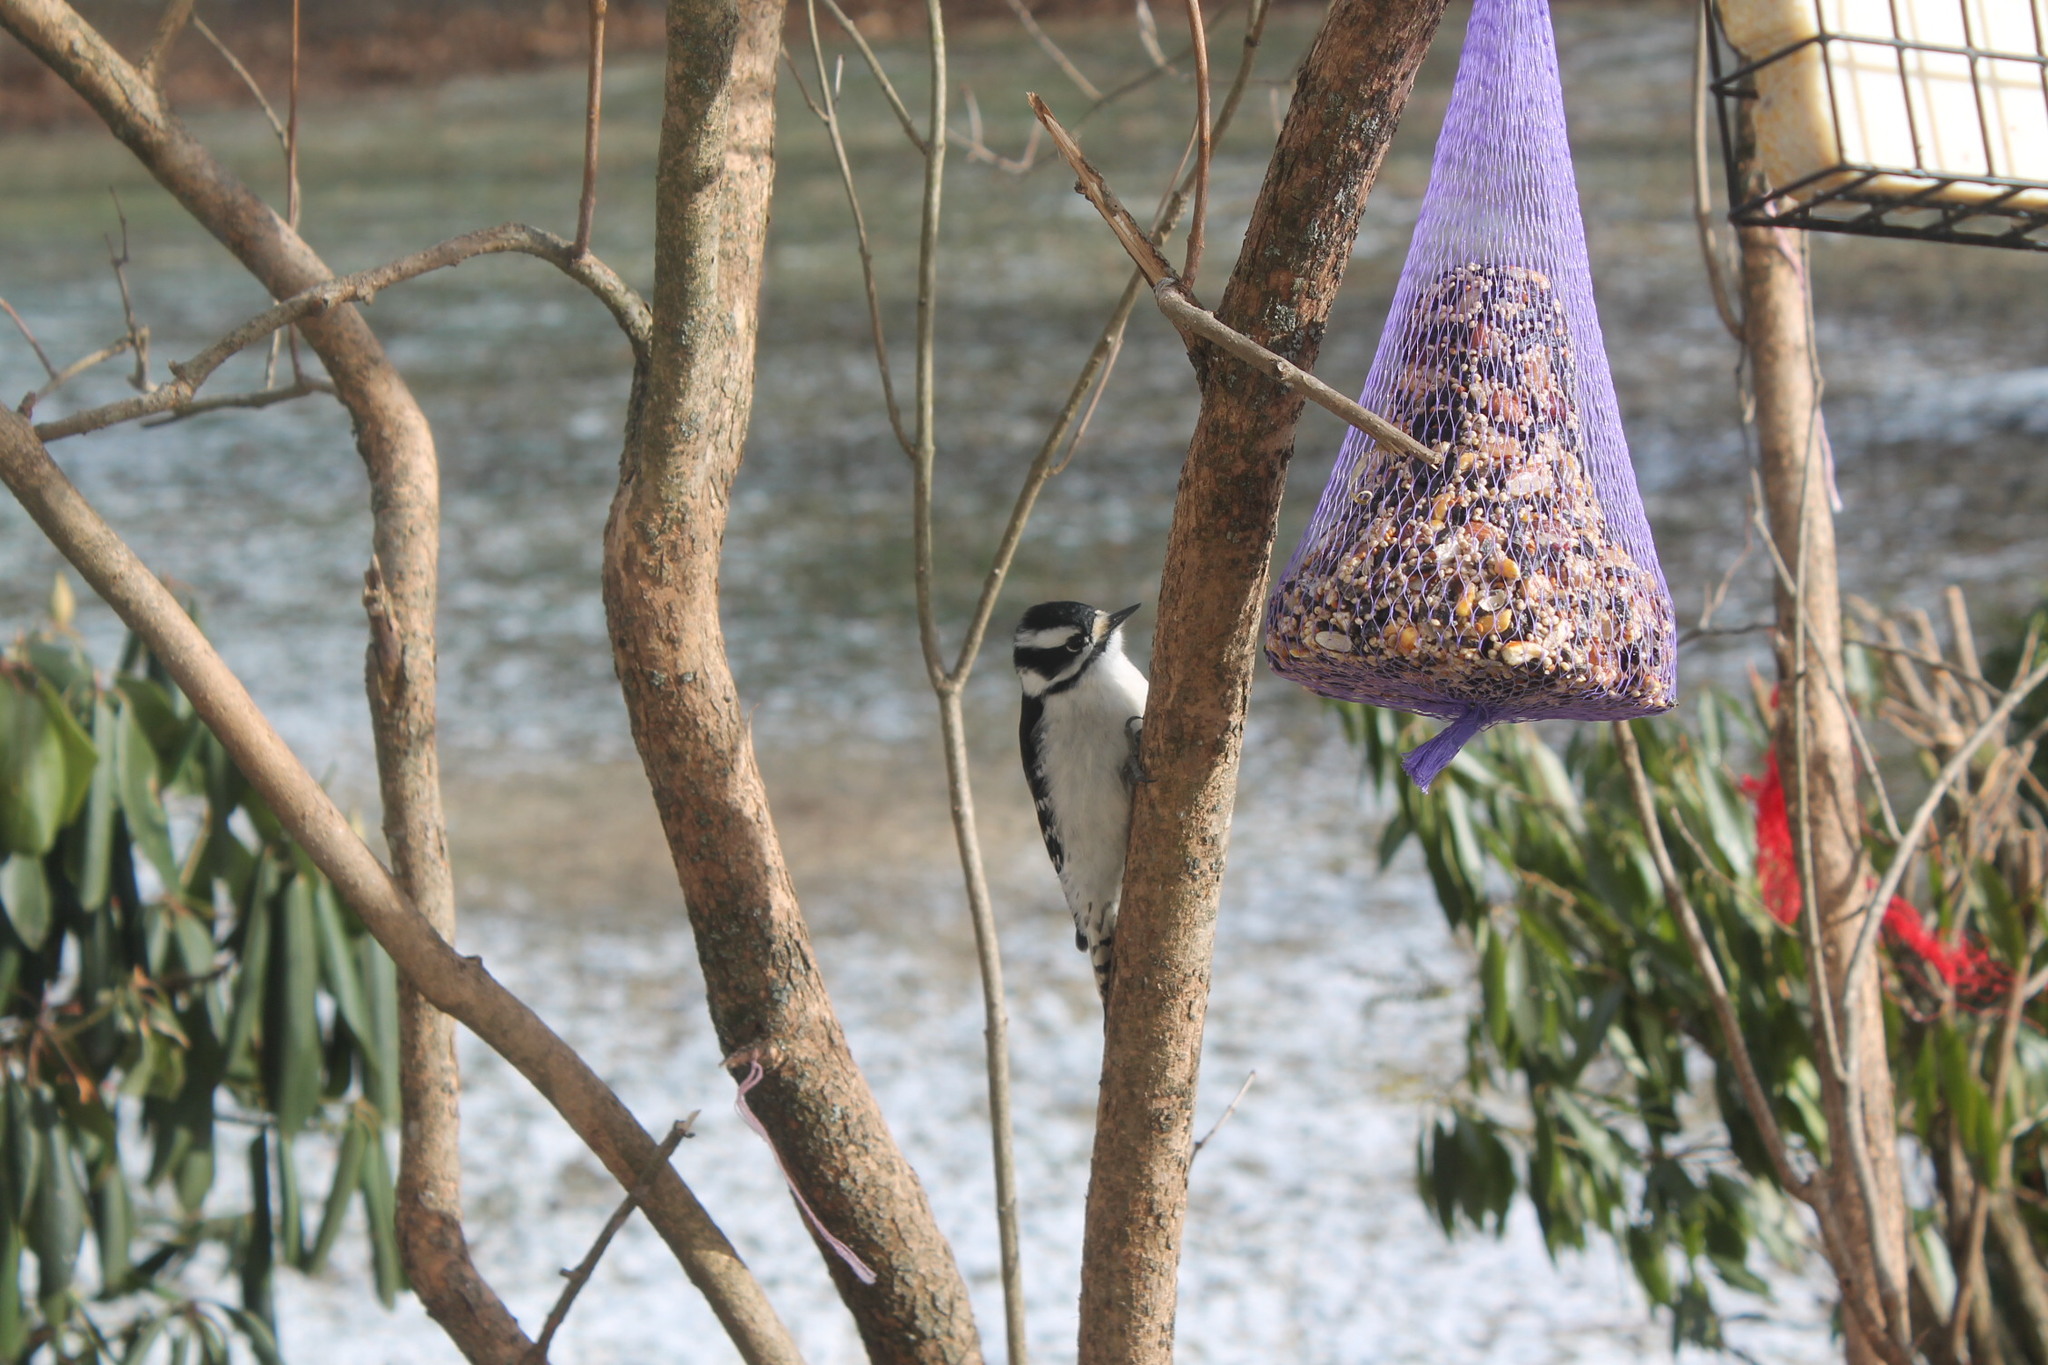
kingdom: Animalia
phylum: Chordata
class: Aves
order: Piciformes
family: Picidae
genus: Dryobates
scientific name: Dryobates pubescens
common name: Downy woodpecker
